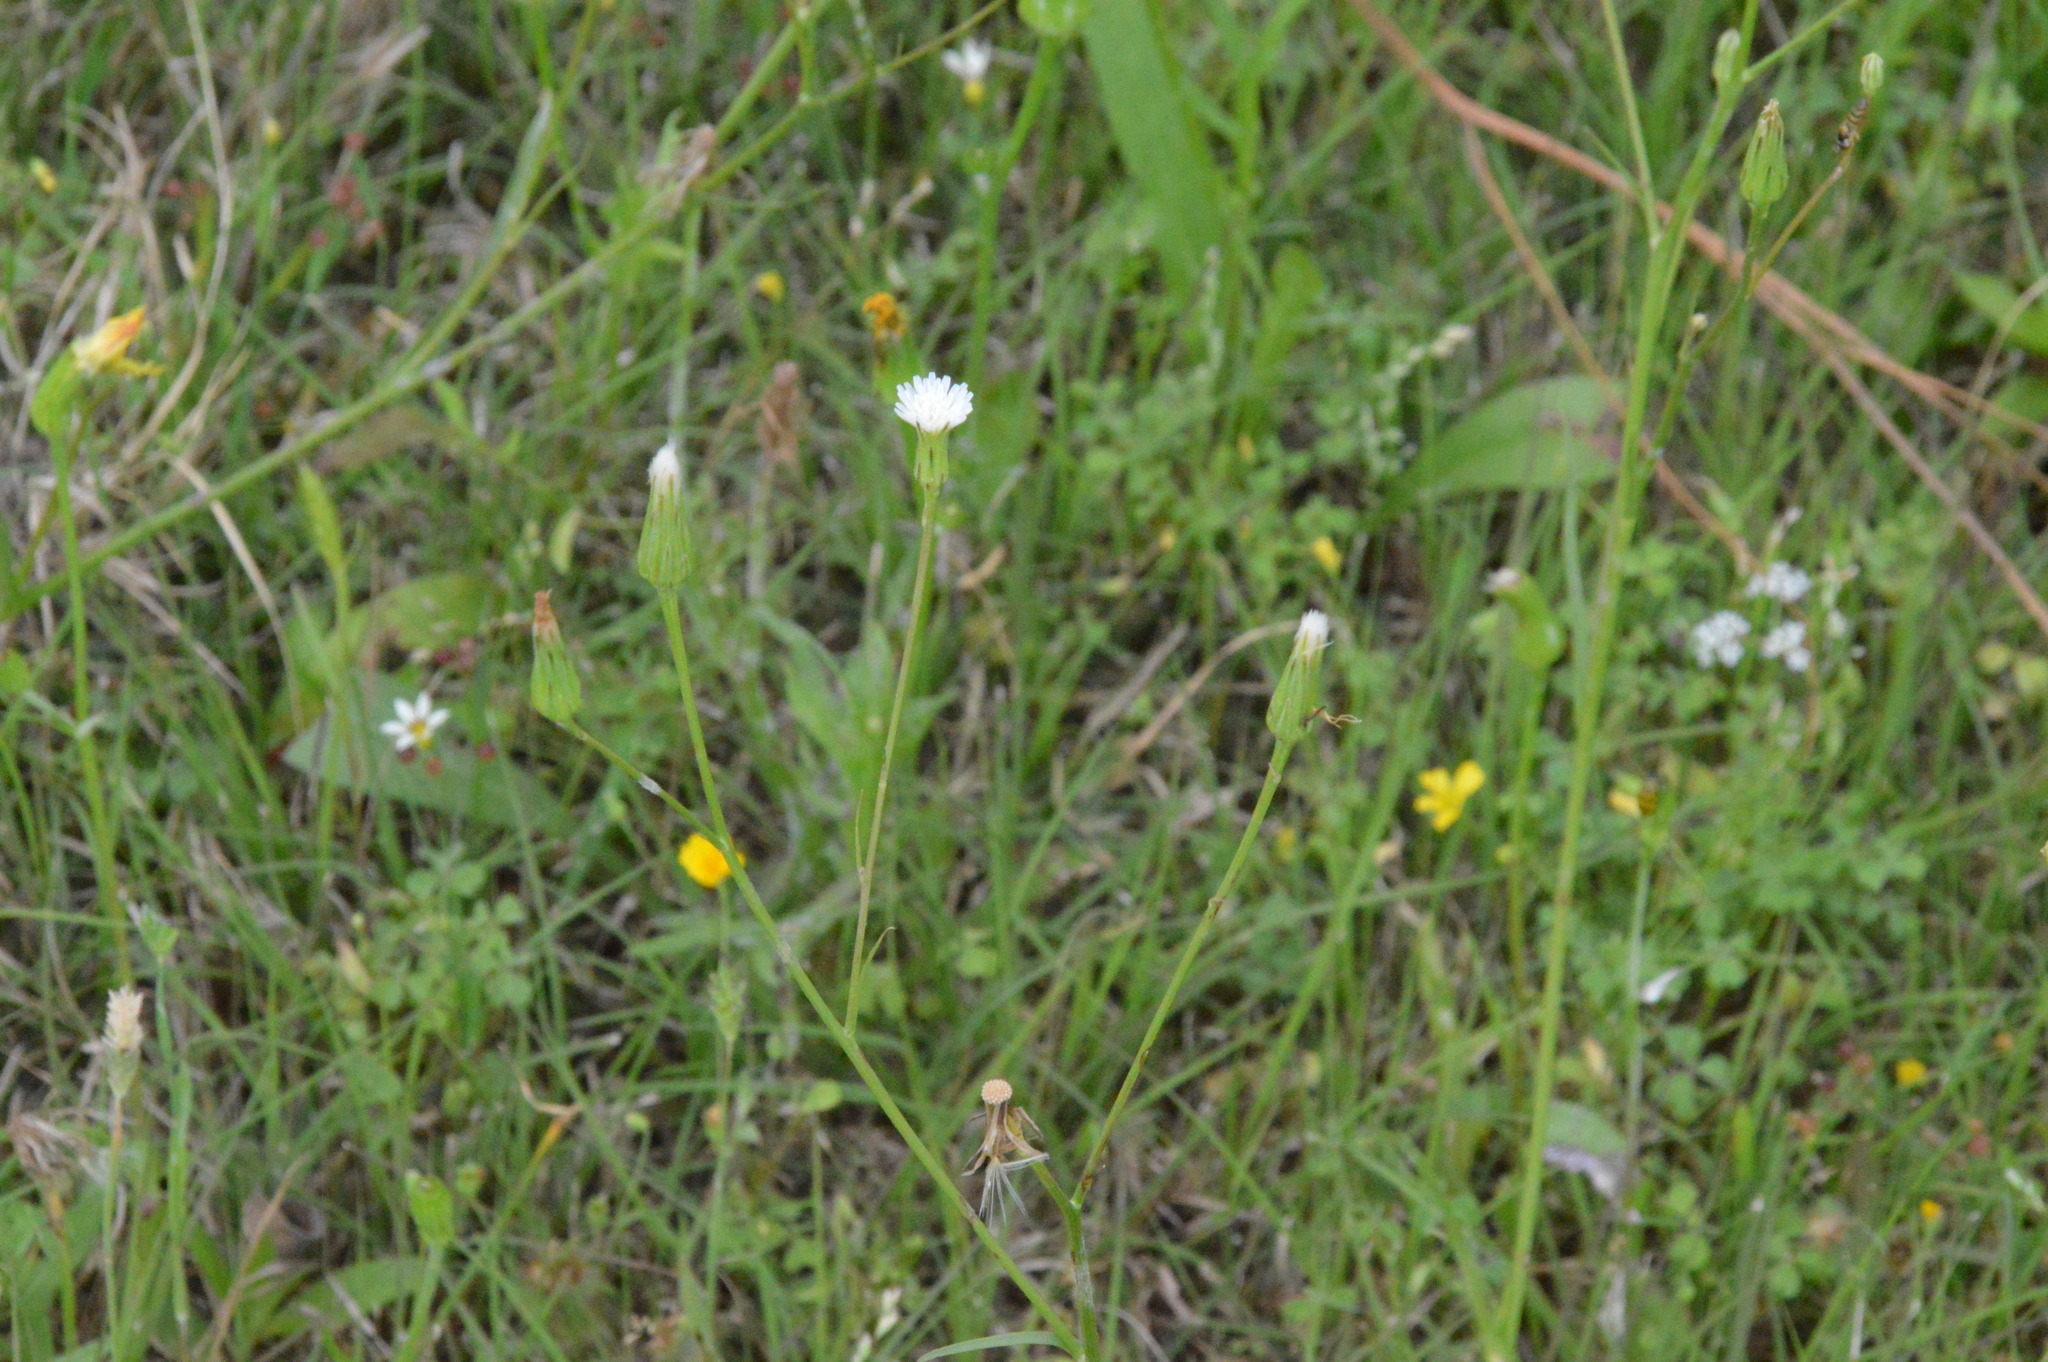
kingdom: Plantae
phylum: Tracheophyta
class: Magnoliopsida
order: Asterales
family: Asteraceae
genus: Hypochaeris
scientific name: Hypochaeris albiflora
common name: White flatweed
